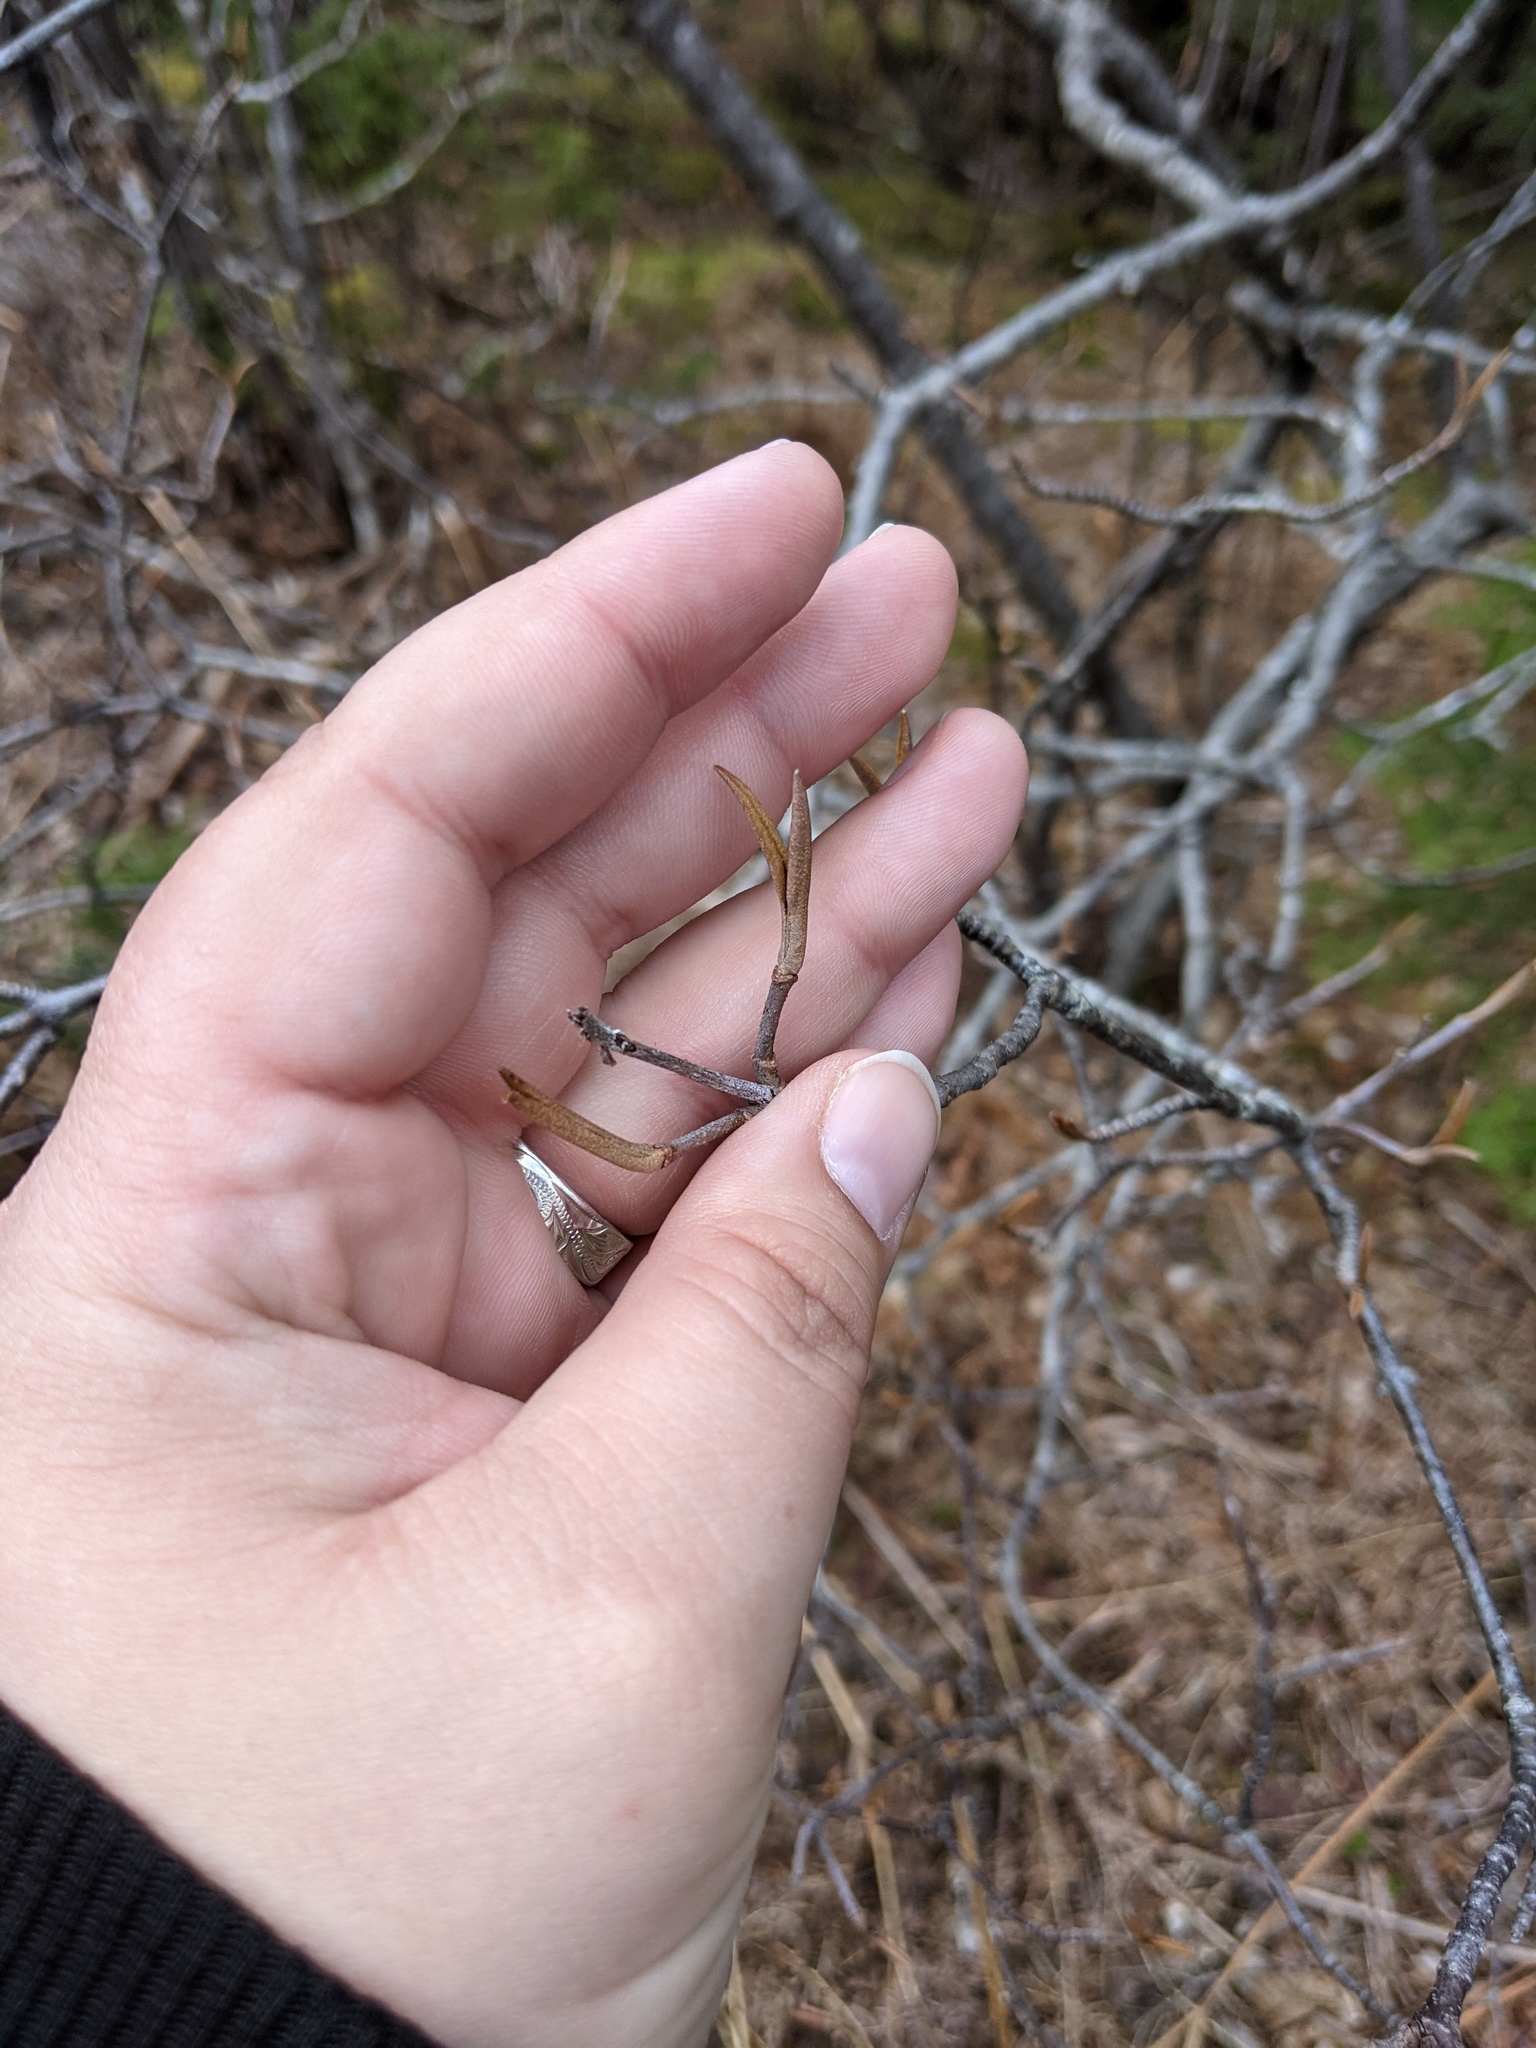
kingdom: Plantae
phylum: Tracheophyta
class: Magnoliopsida
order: Dipsacales
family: Viburnaceae
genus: Viburnum
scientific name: Viburnum cassinoides
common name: Swamp haw
